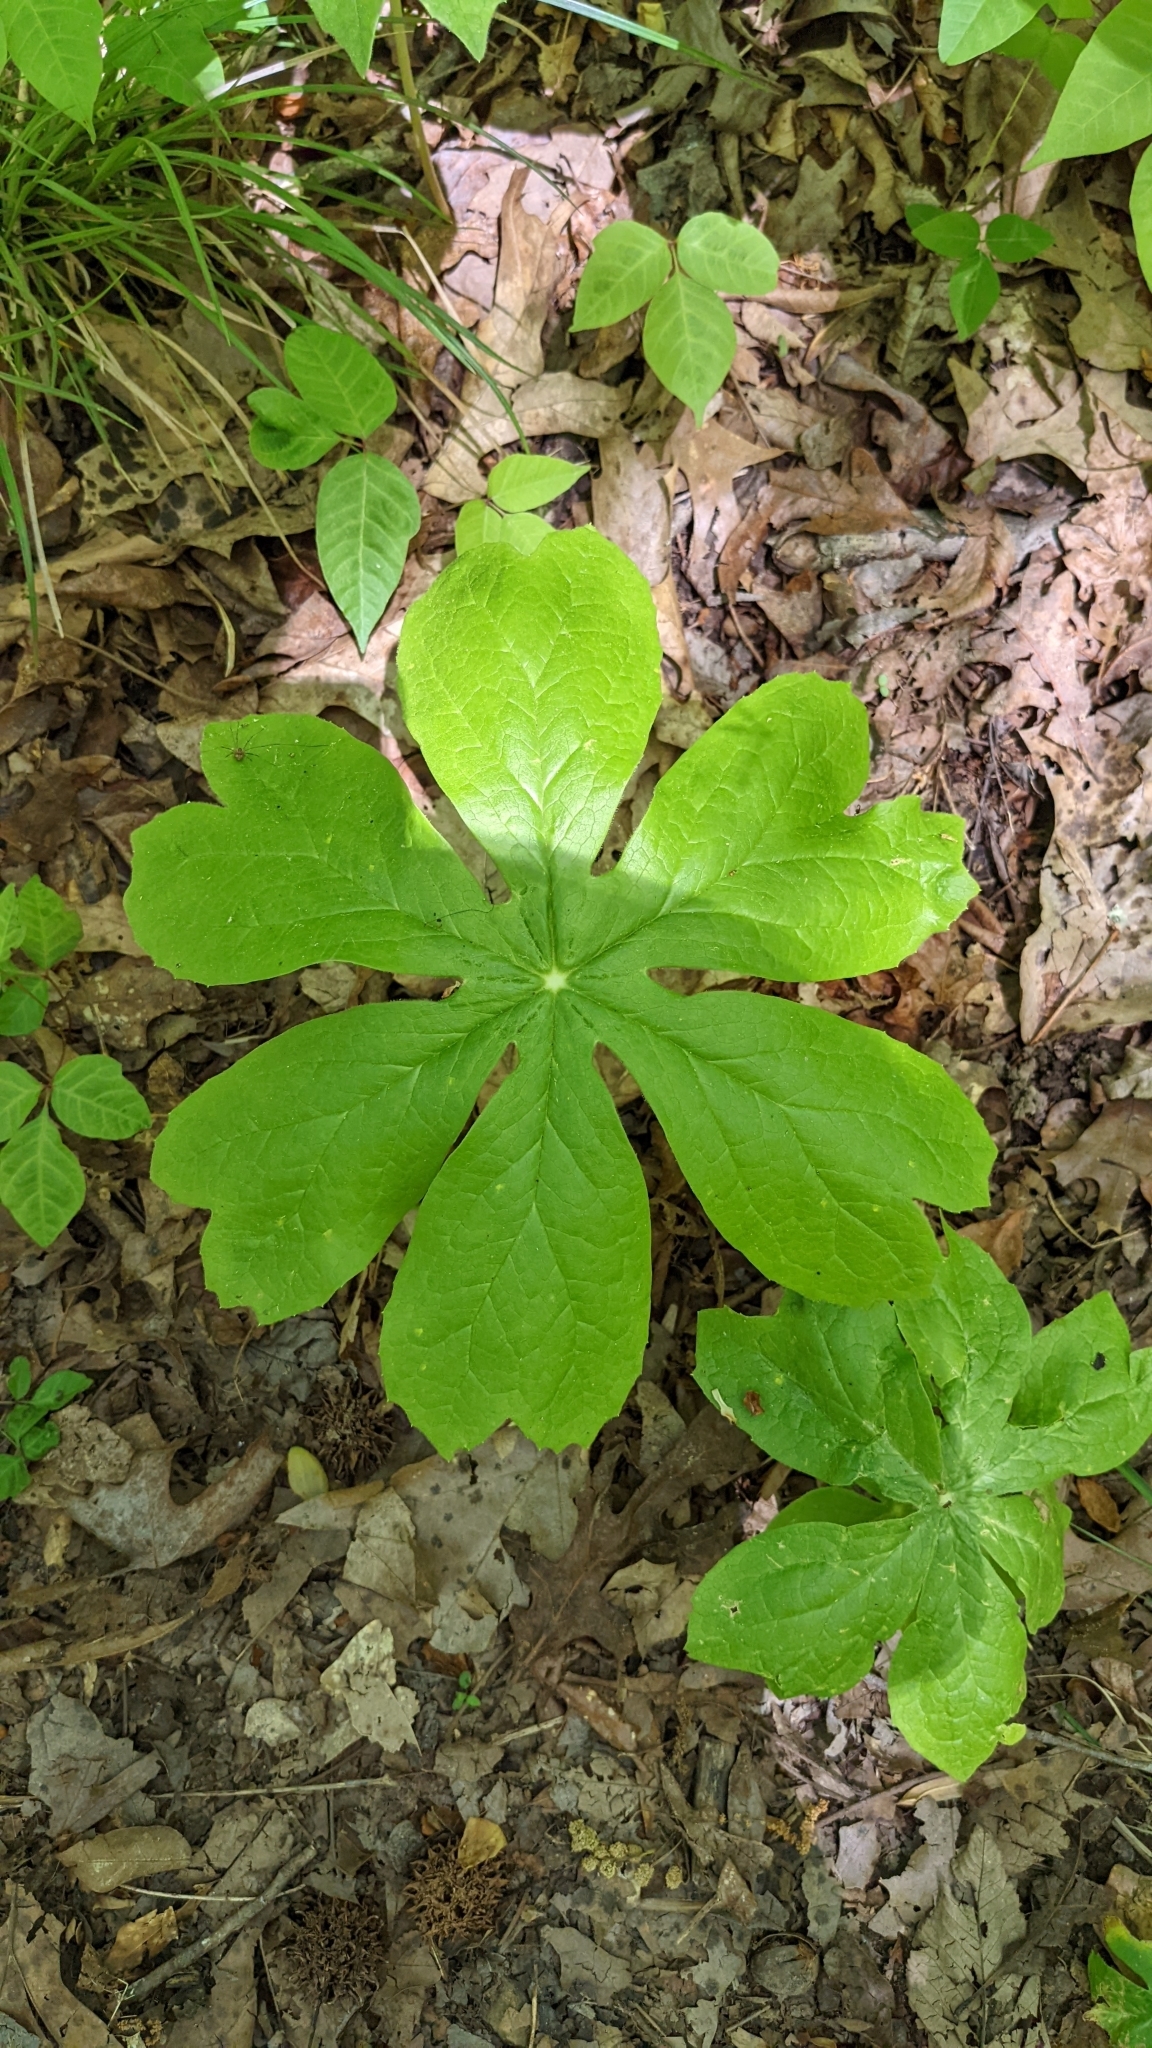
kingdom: Plantae
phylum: Tracheophyta
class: Magnoliopsida
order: Ranunculales
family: Berberidaceae
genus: Podophyllum
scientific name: Podophyllum peltatum
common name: Wild mandrake
